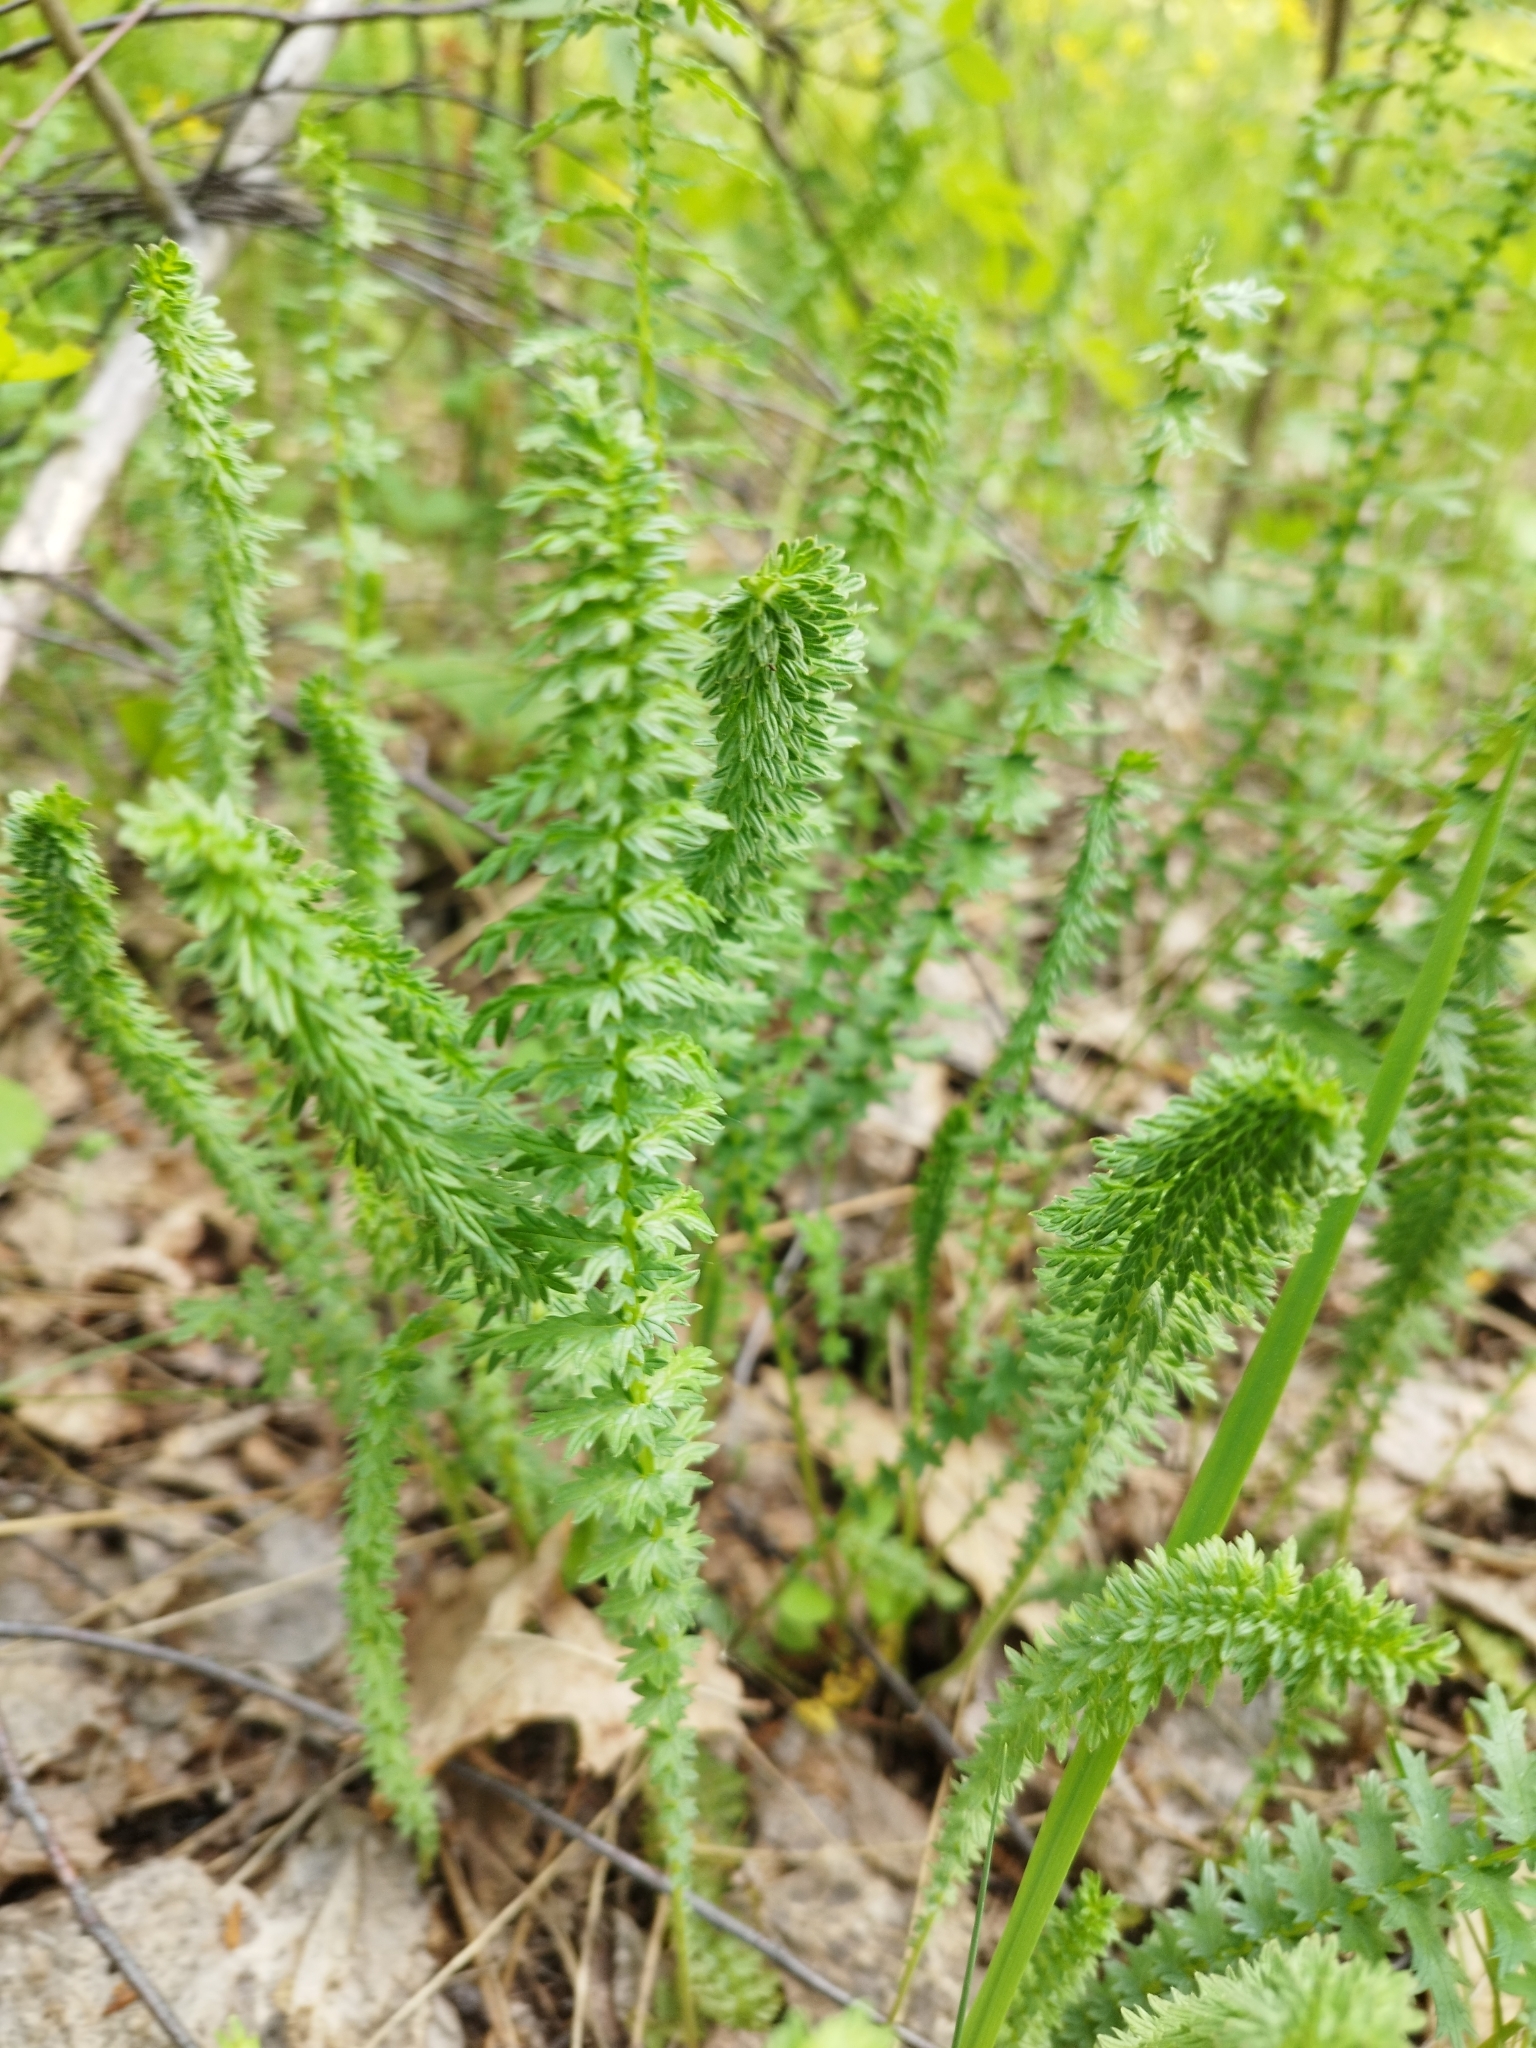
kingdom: Plantae
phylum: Tracheophyta
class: Magnoliopsida
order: Rosales
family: Rosaceae
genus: Filipendula
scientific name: Filipendula vulgaris
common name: Dropwort
